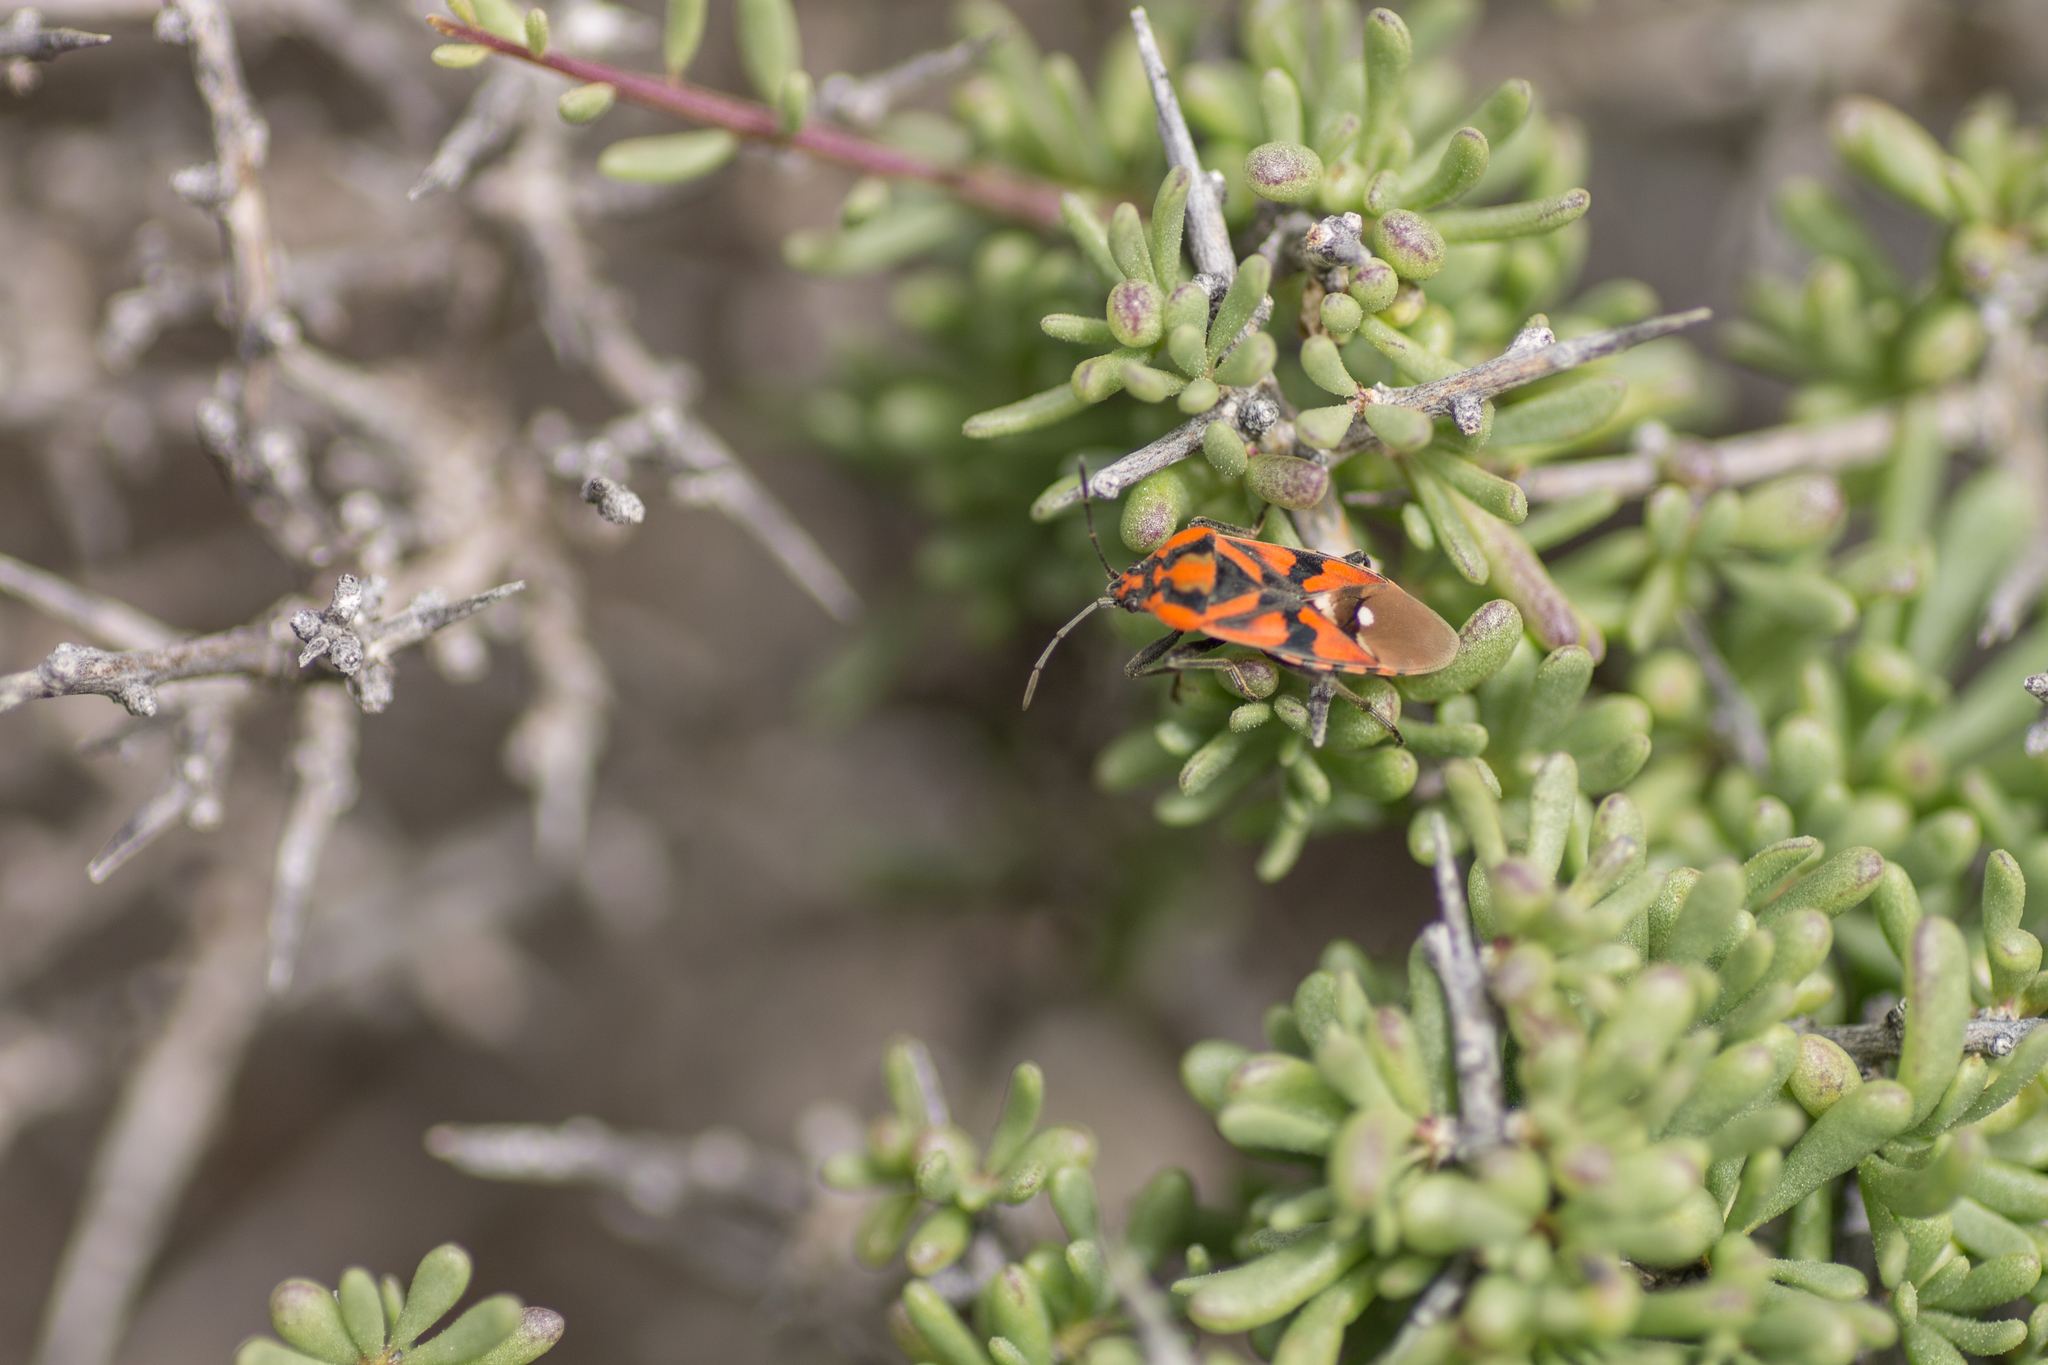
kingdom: Animalia
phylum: Arthropoda
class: Insecta
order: Hemiptera
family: Lygaeidae
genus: Spilostethus
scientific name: Spilostethus pandurus
